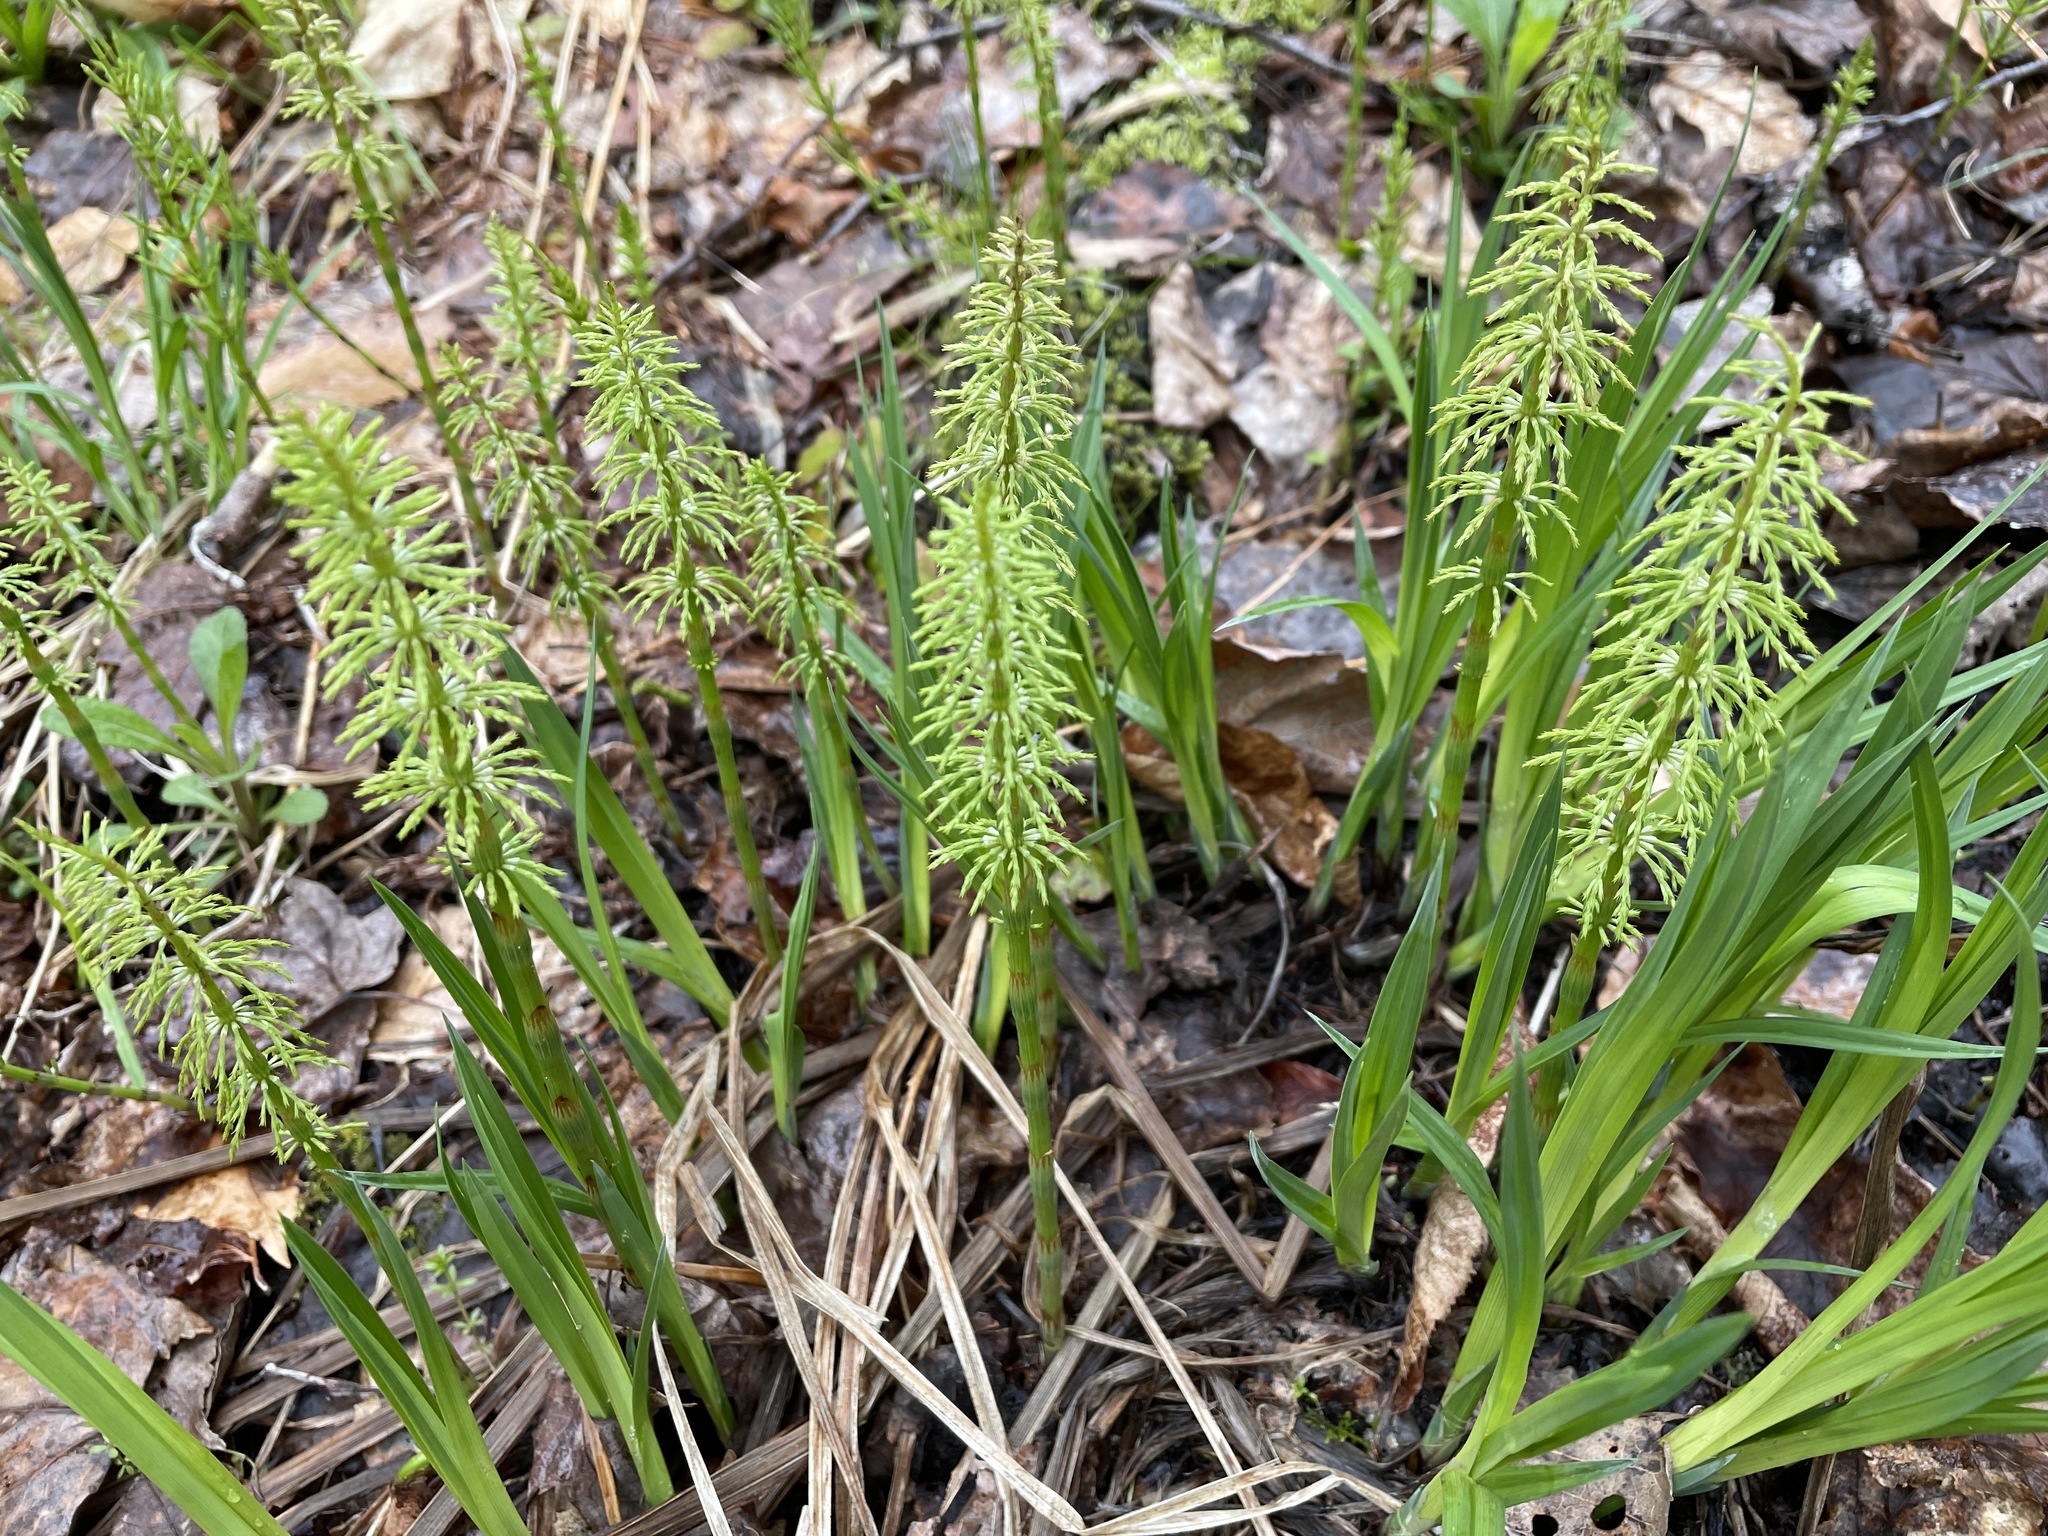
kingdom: Plantae
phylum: Tracheophyta
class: Polypodiopsida
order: Equisetales
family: Equisetaceae
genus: Equisetum
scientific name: Equisetum sylvaticum
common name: Wood horsetail
